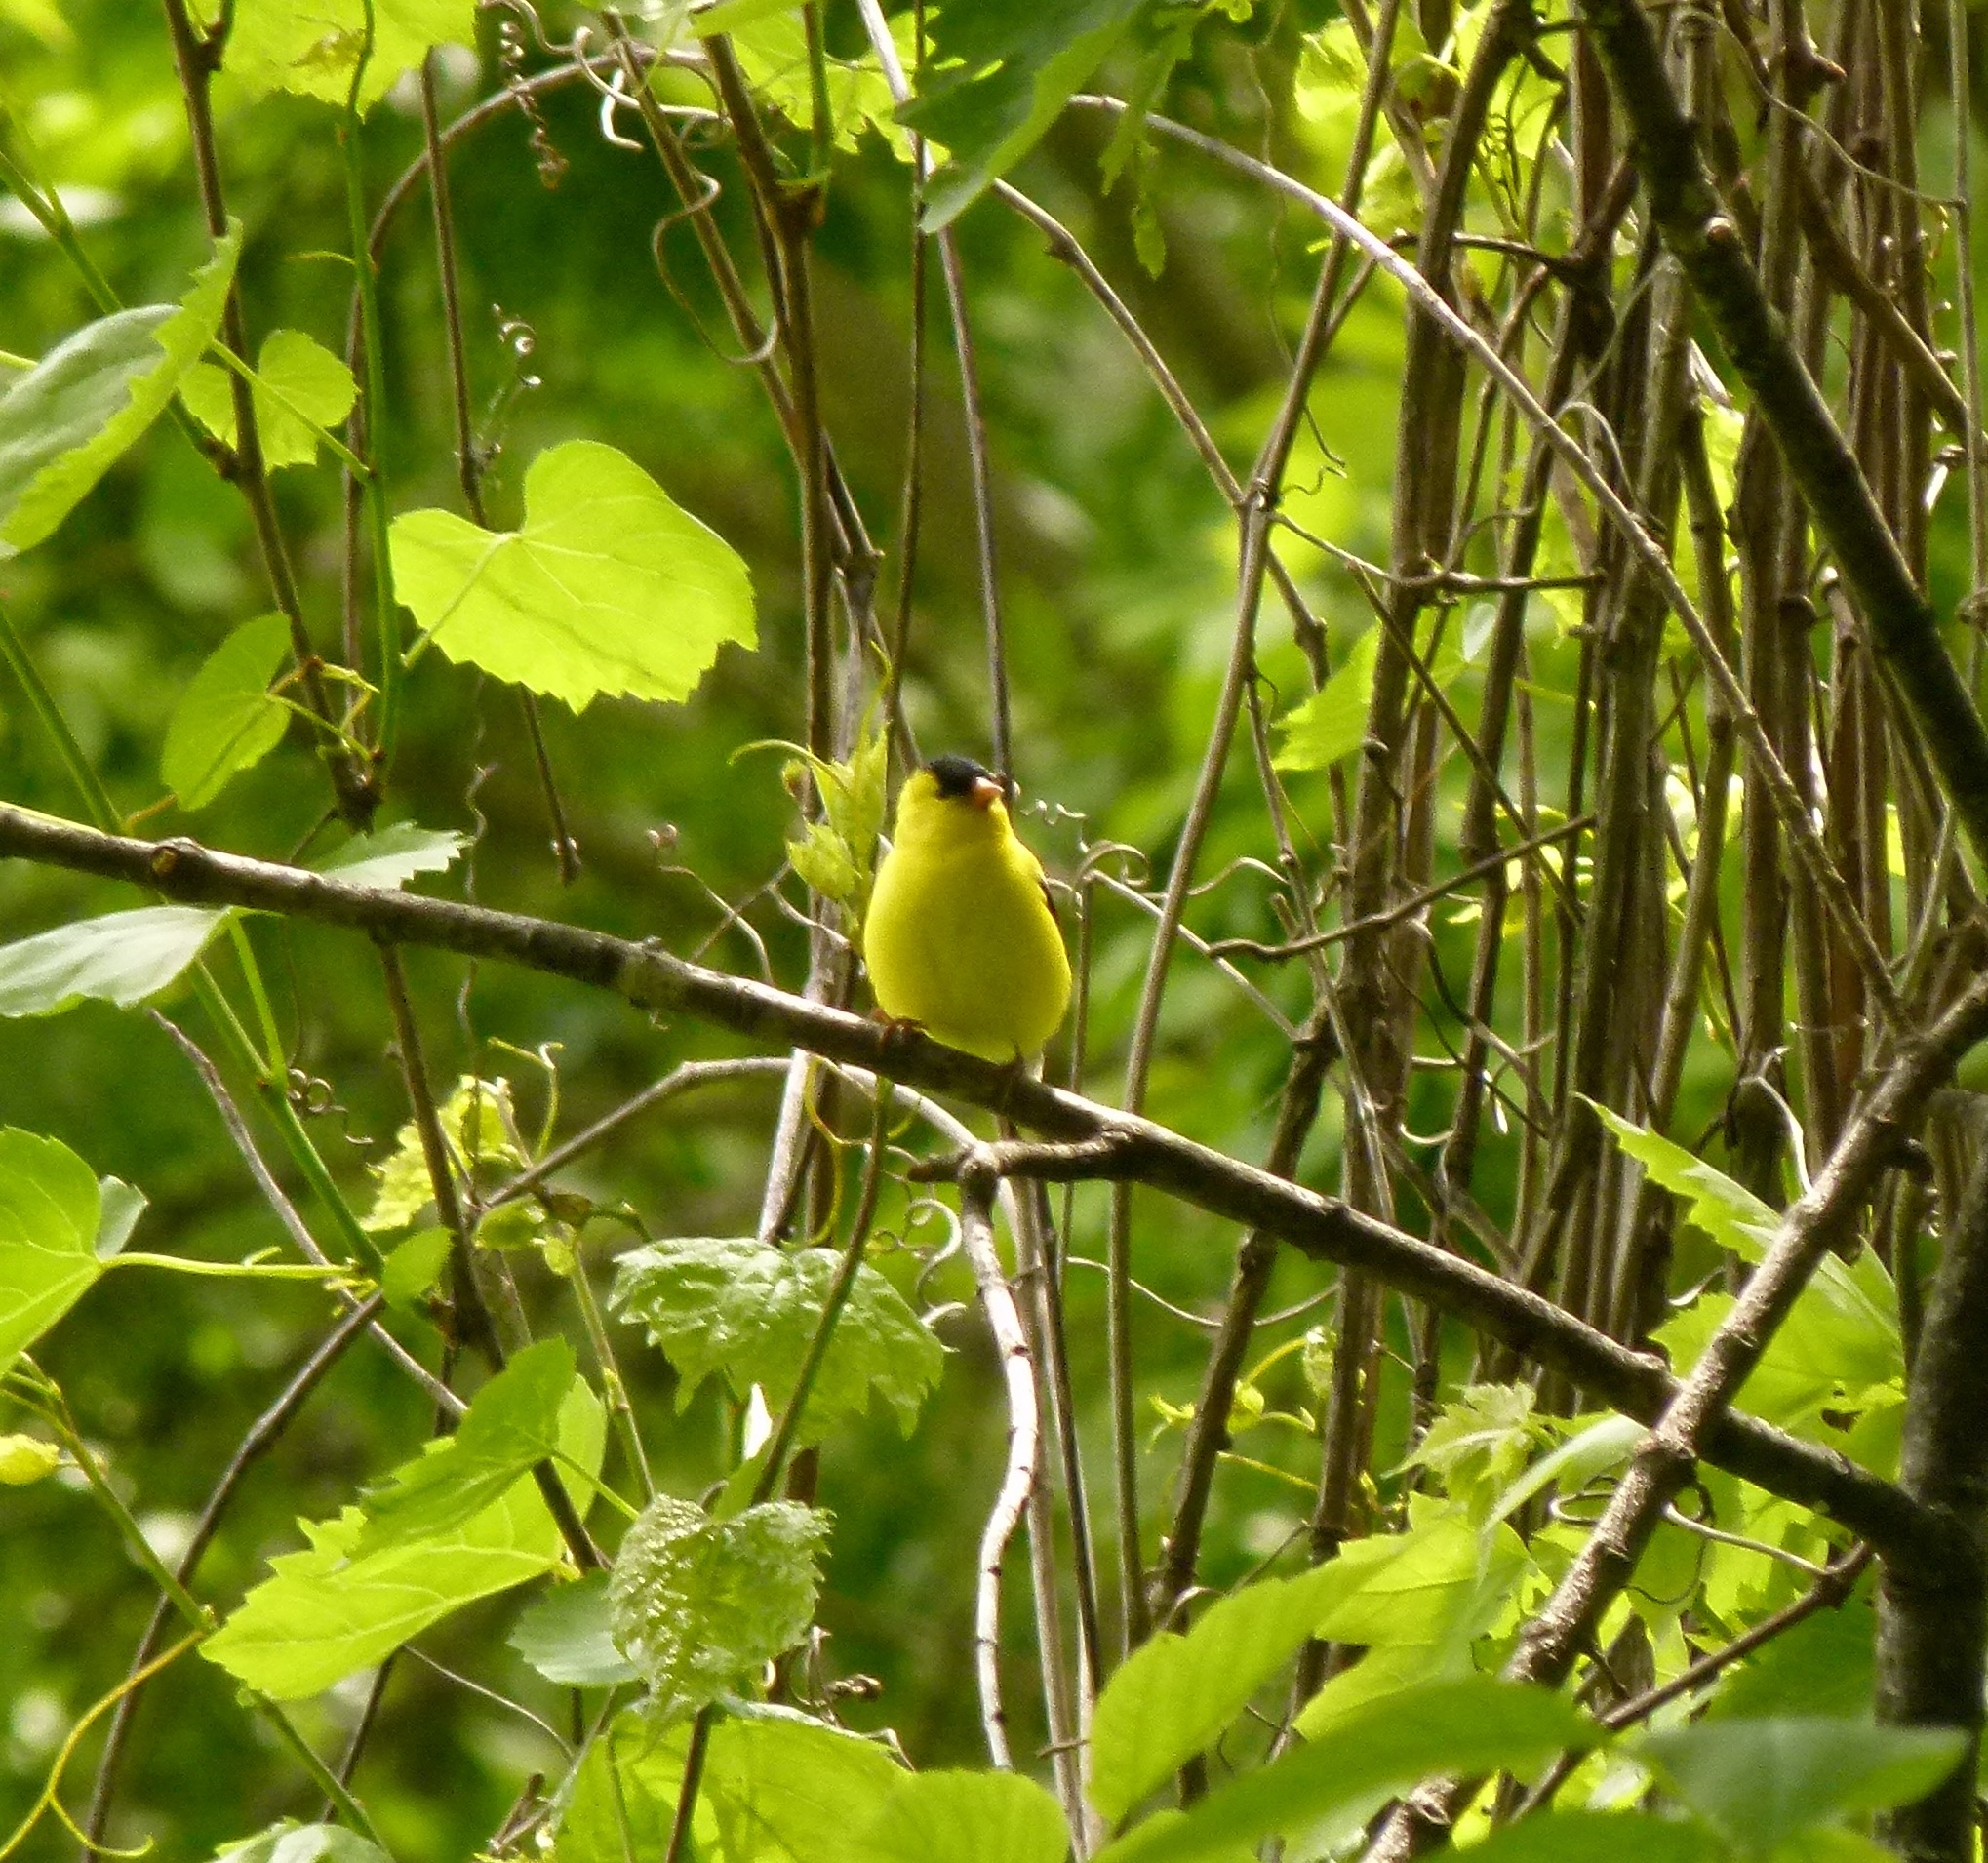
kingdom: Animalia
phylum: Chordata
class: Aves
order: Passeriformes
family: Fringillidae
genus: Spinus
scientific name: Spinus tristis
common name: American goldfinch
